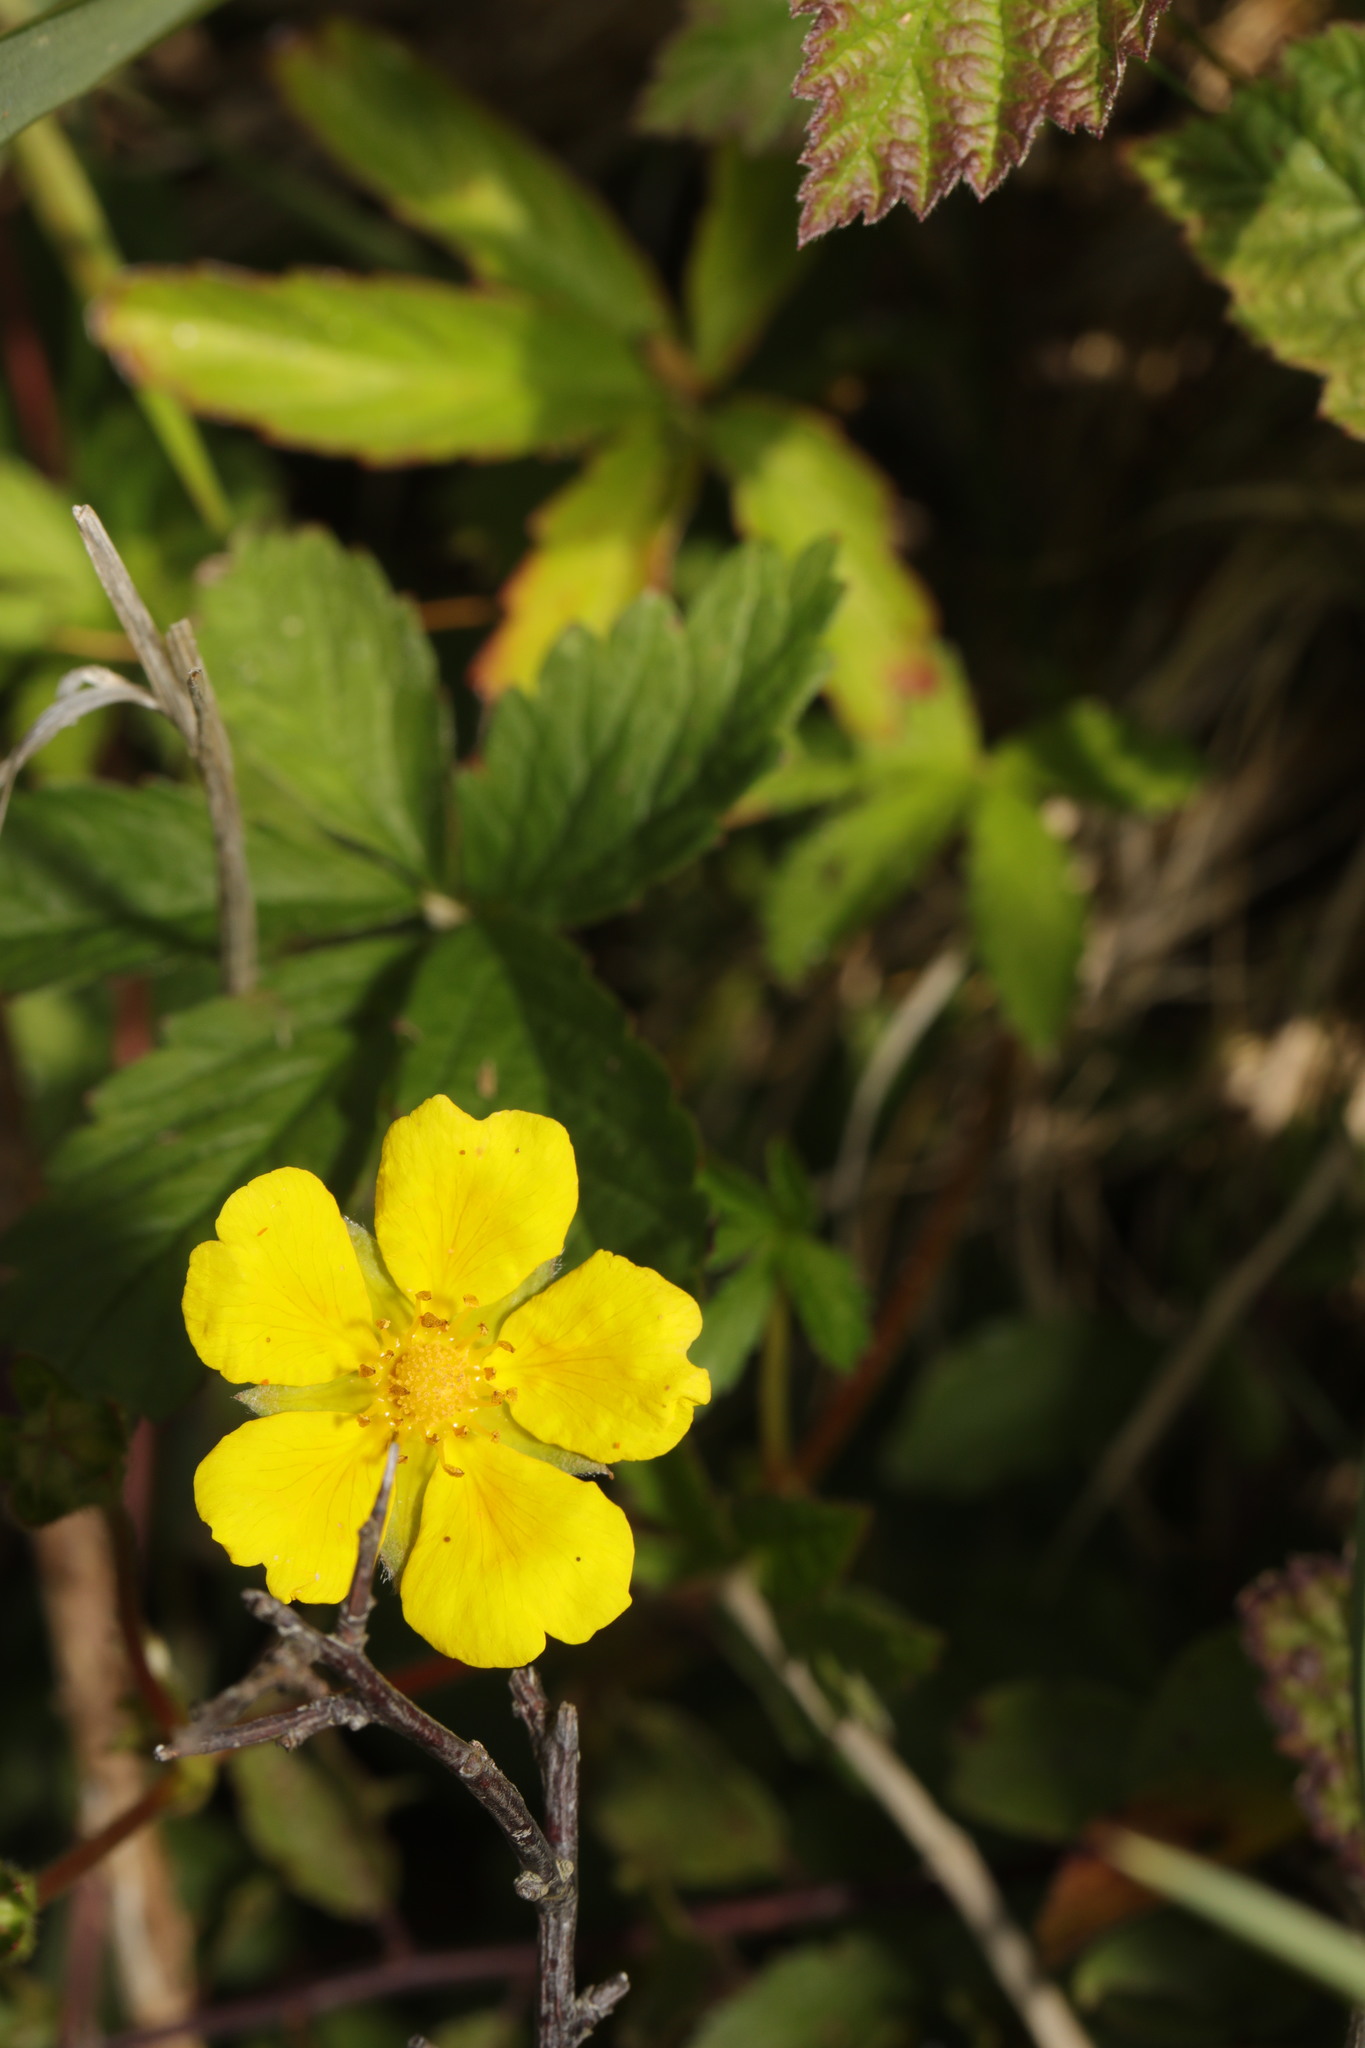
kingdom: Plantae
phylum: Tracheophyta
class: Magnoliopsida
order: Rosales
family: Rosaceae
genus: Potentilla
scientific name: Potentilla reptans
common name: Creeping cinquefoil
